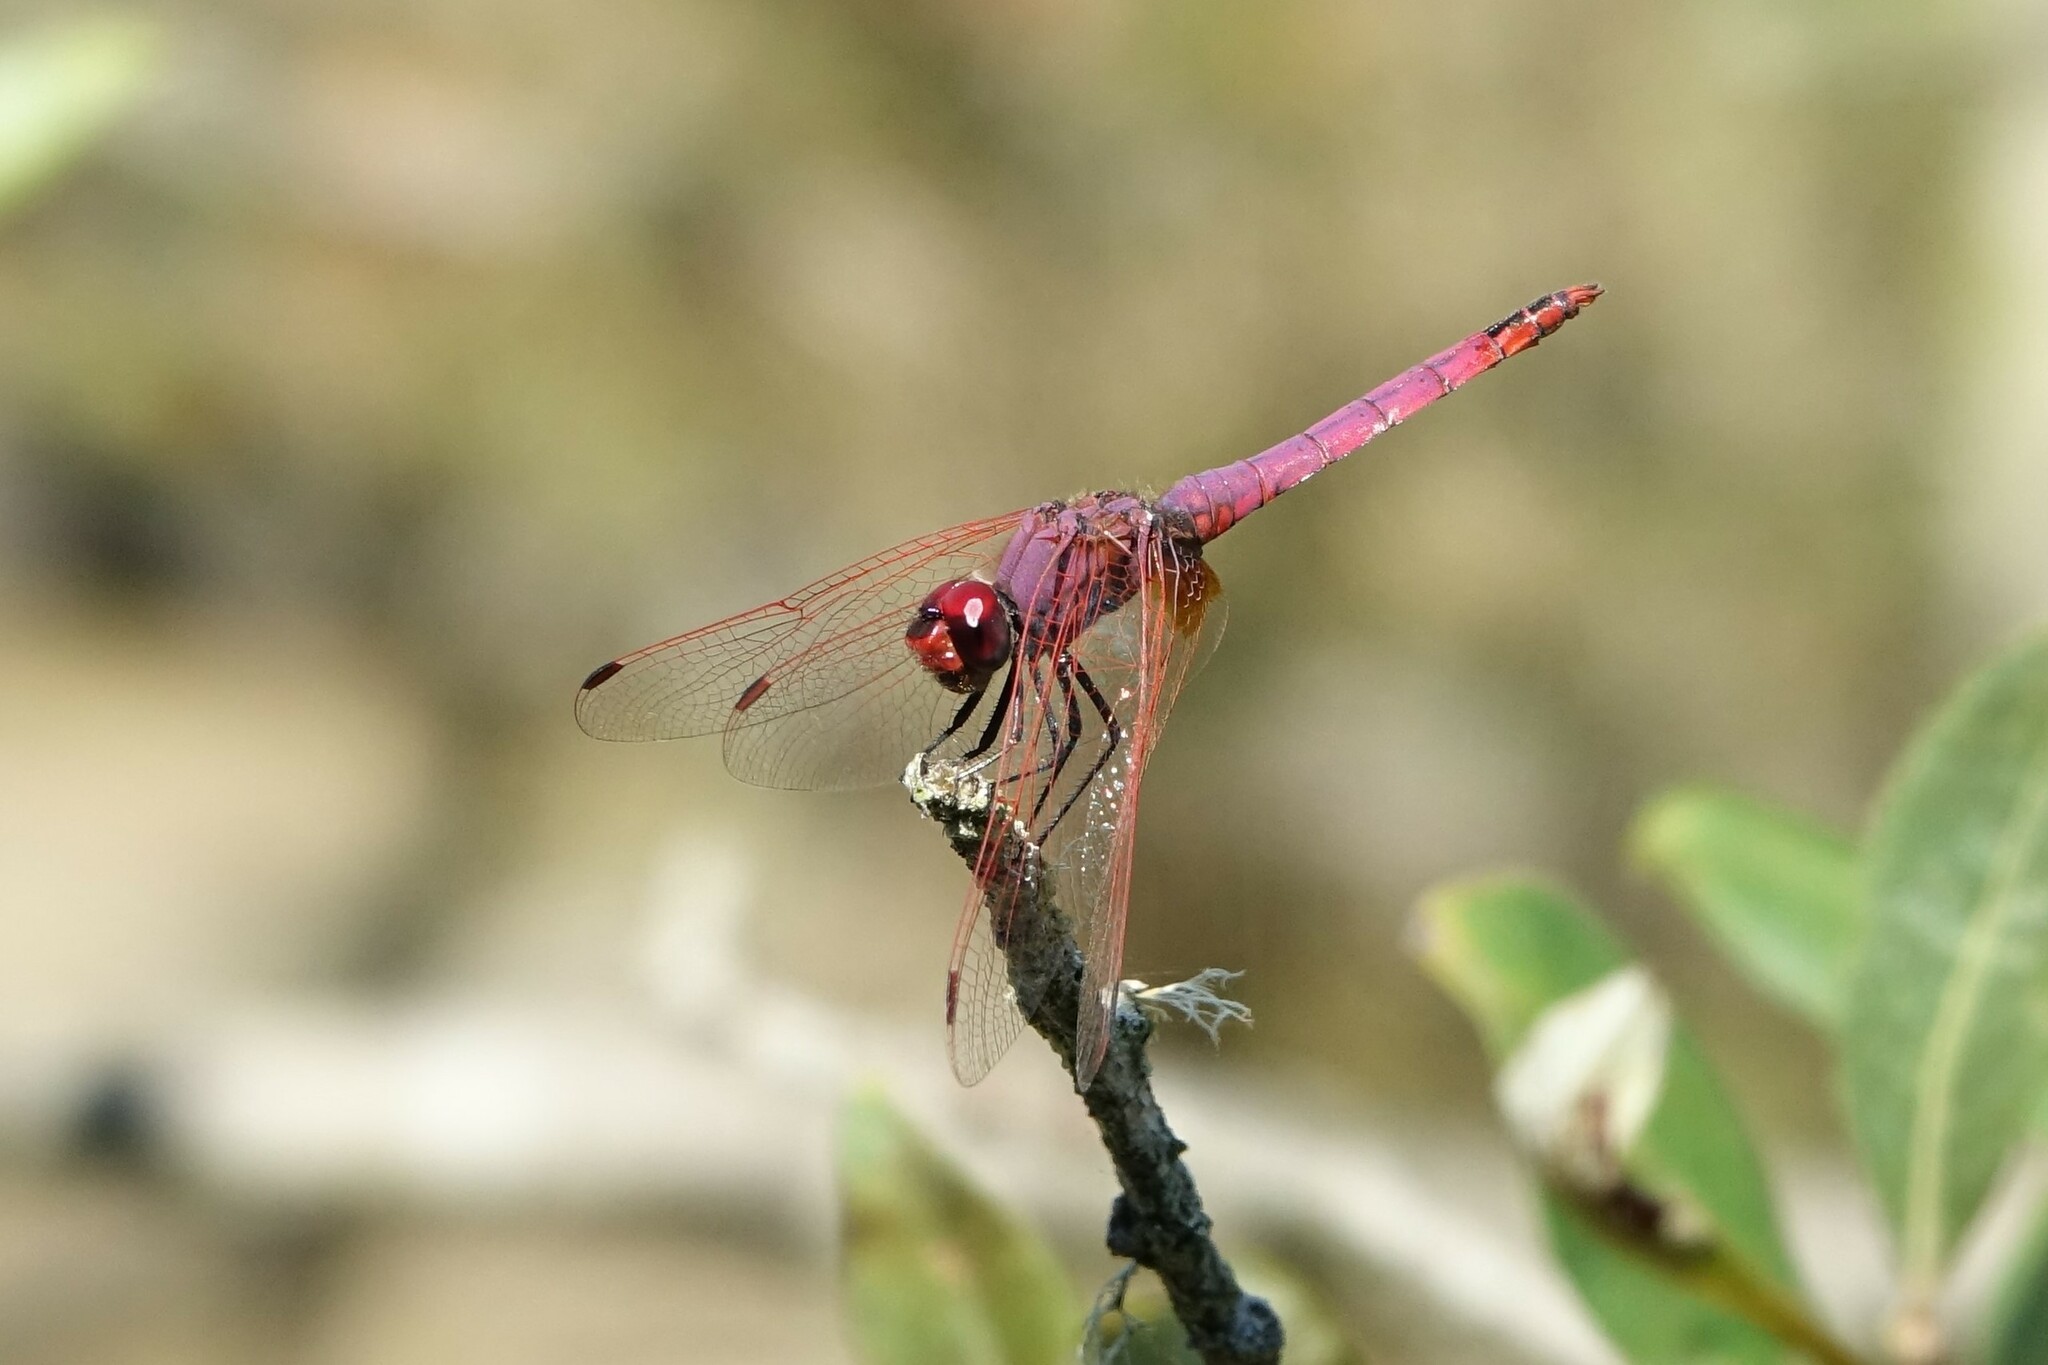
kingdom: Animalia
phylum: Arthropoda
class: Insecta
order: Odonata
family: Libellulidae
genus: Trithemis
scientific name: Trithemis annulata
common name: Violet dropwing
